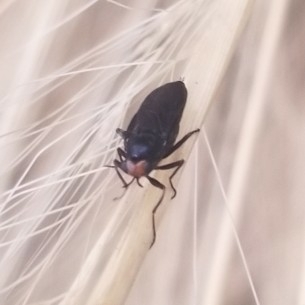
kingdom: Animalia
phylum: Arthropoda
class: Insecta
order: Diptera
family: Stratiomyidae
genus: Inopus
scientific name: Inopus rubriceps
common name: Soldier fly
